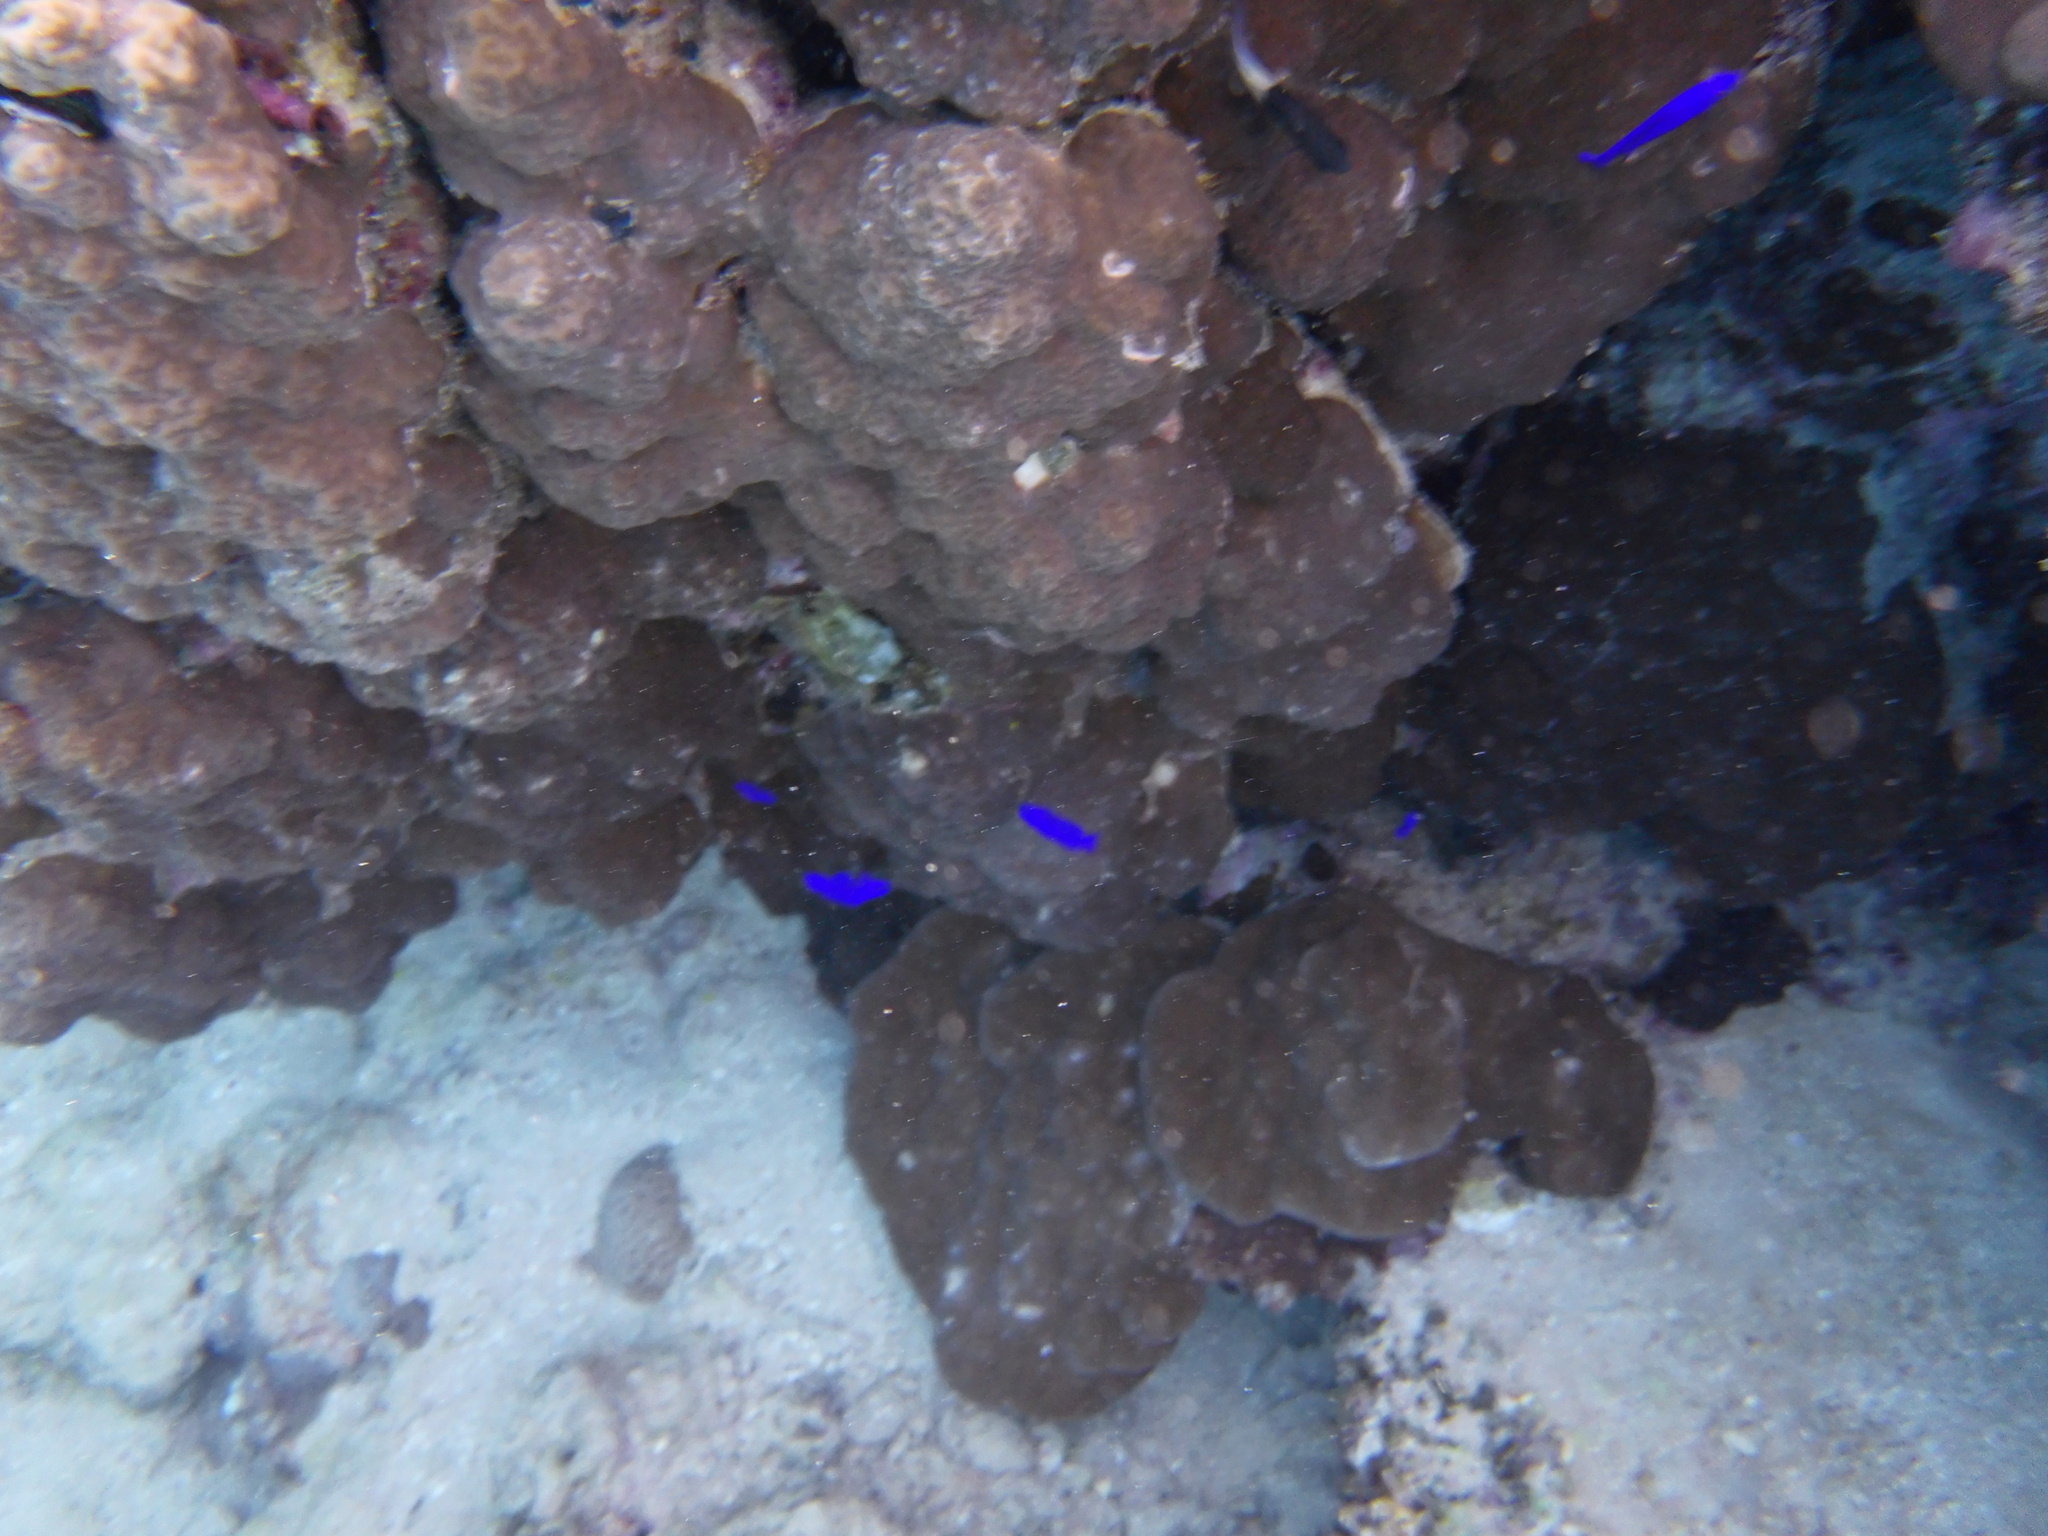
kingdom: Animalia
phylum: Chordata
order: Perciformes
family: Pseudochromidae
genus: Pseudochromis
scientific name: Pseudochromis fridmani
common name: Orchid dottyback
